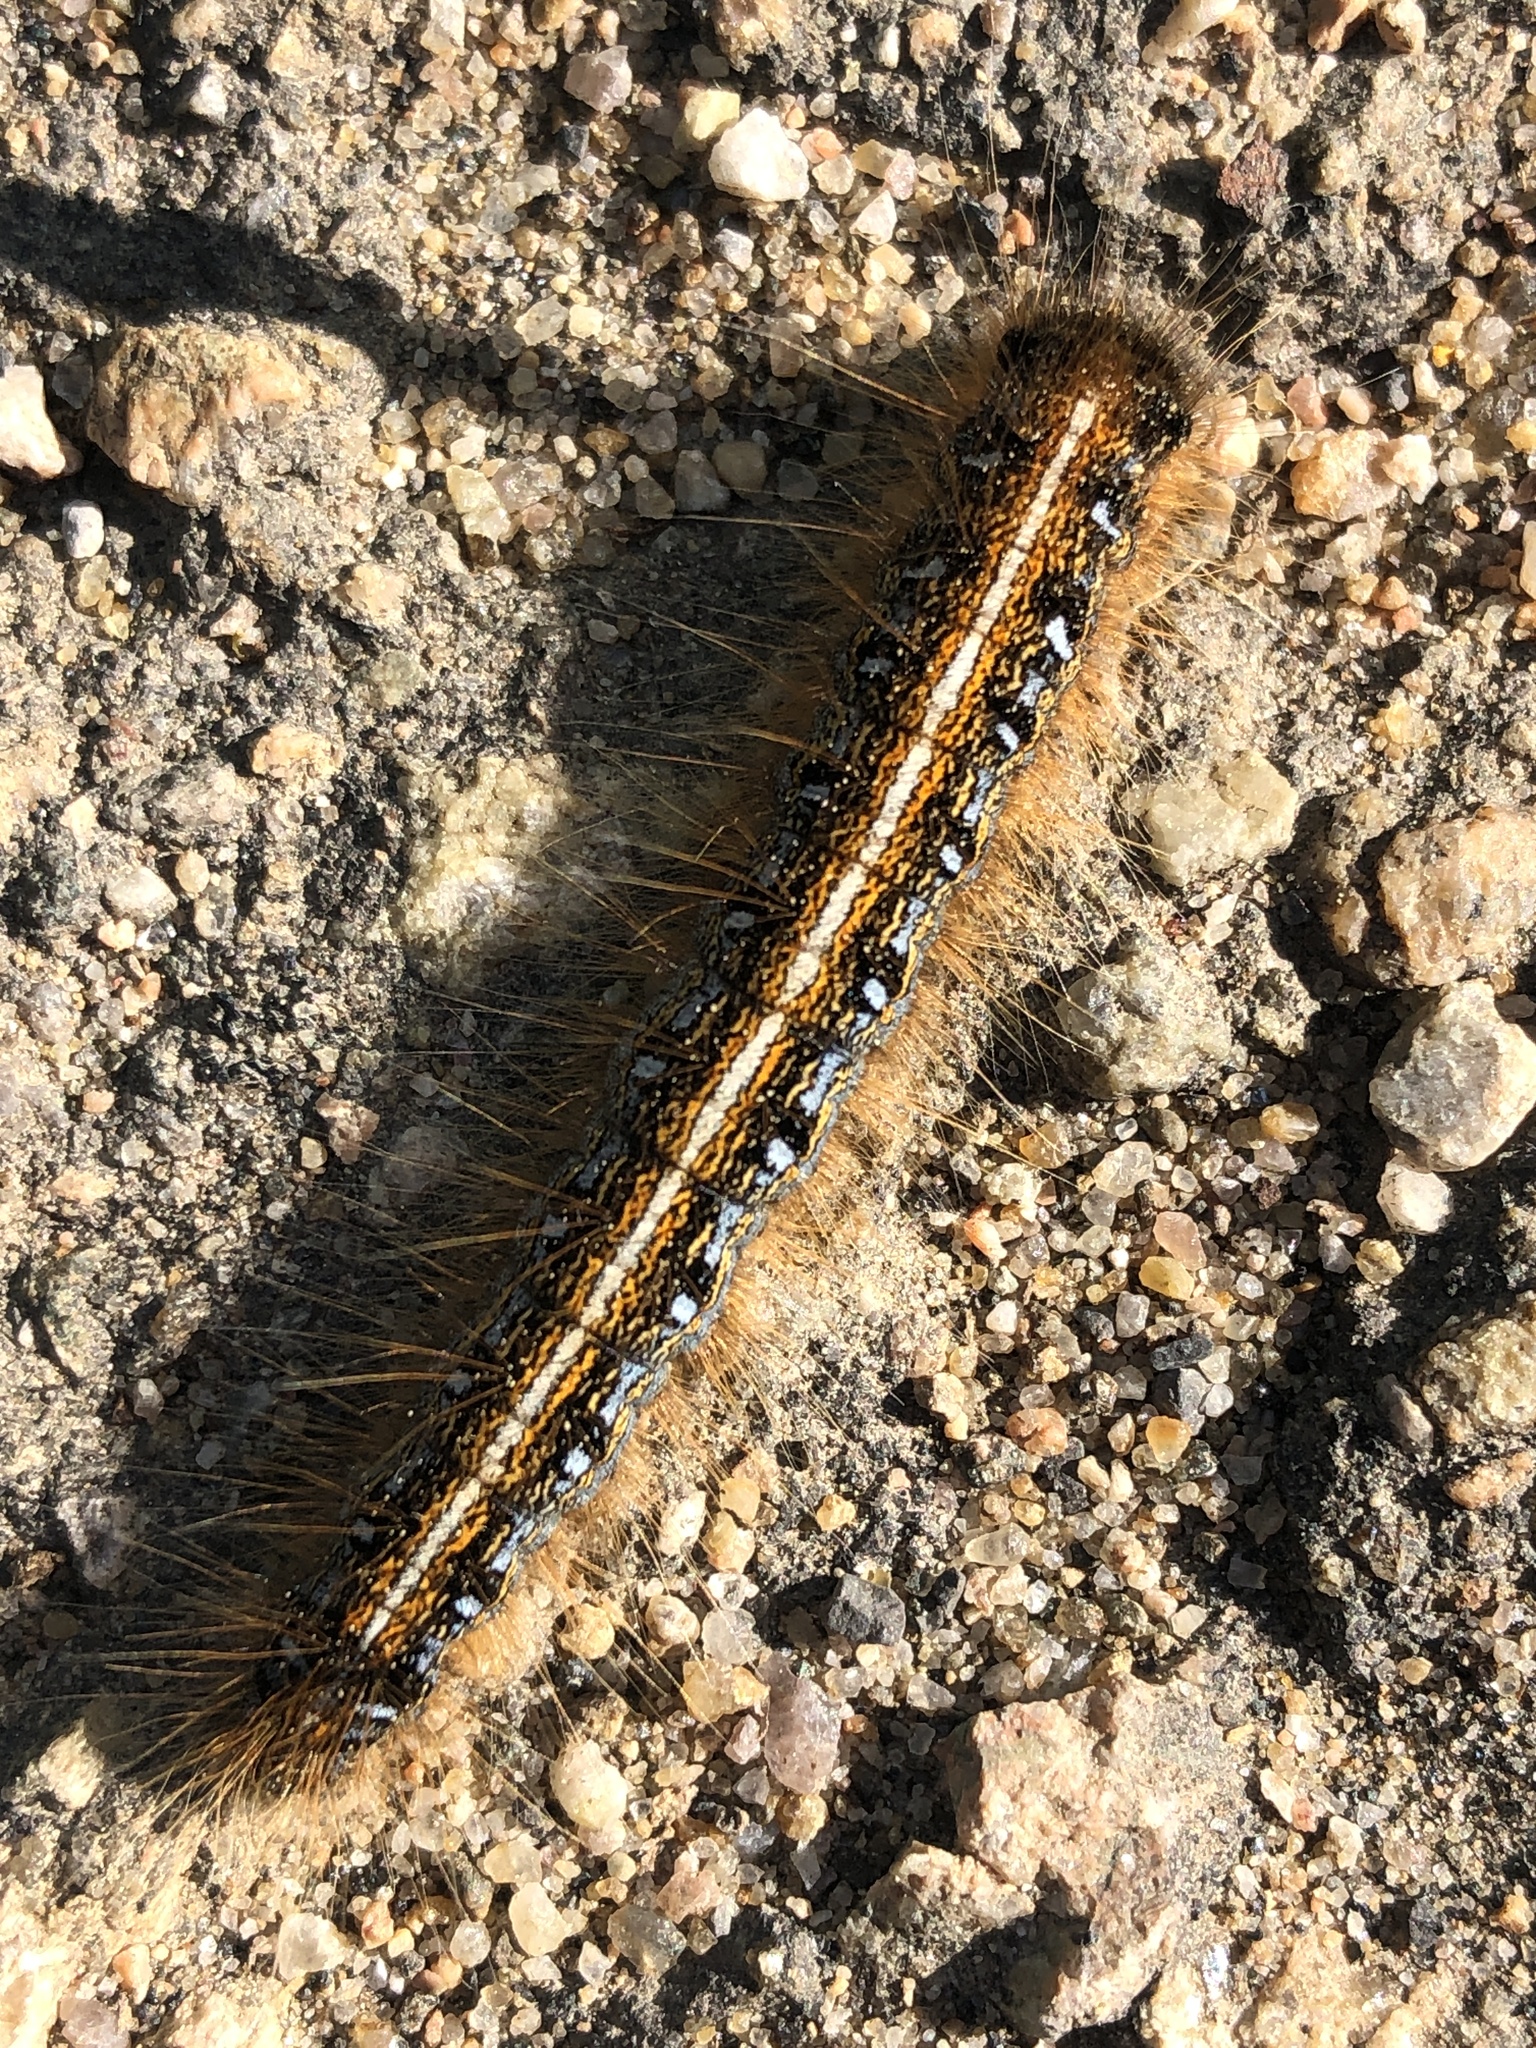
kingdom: Animalia
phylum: Arthropoda
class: Insecta
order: Lepidoptera
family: Lasiocampidae
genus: Malacosoma
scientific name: Malacosoma americana
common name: Eastern tent caterpillar moth
